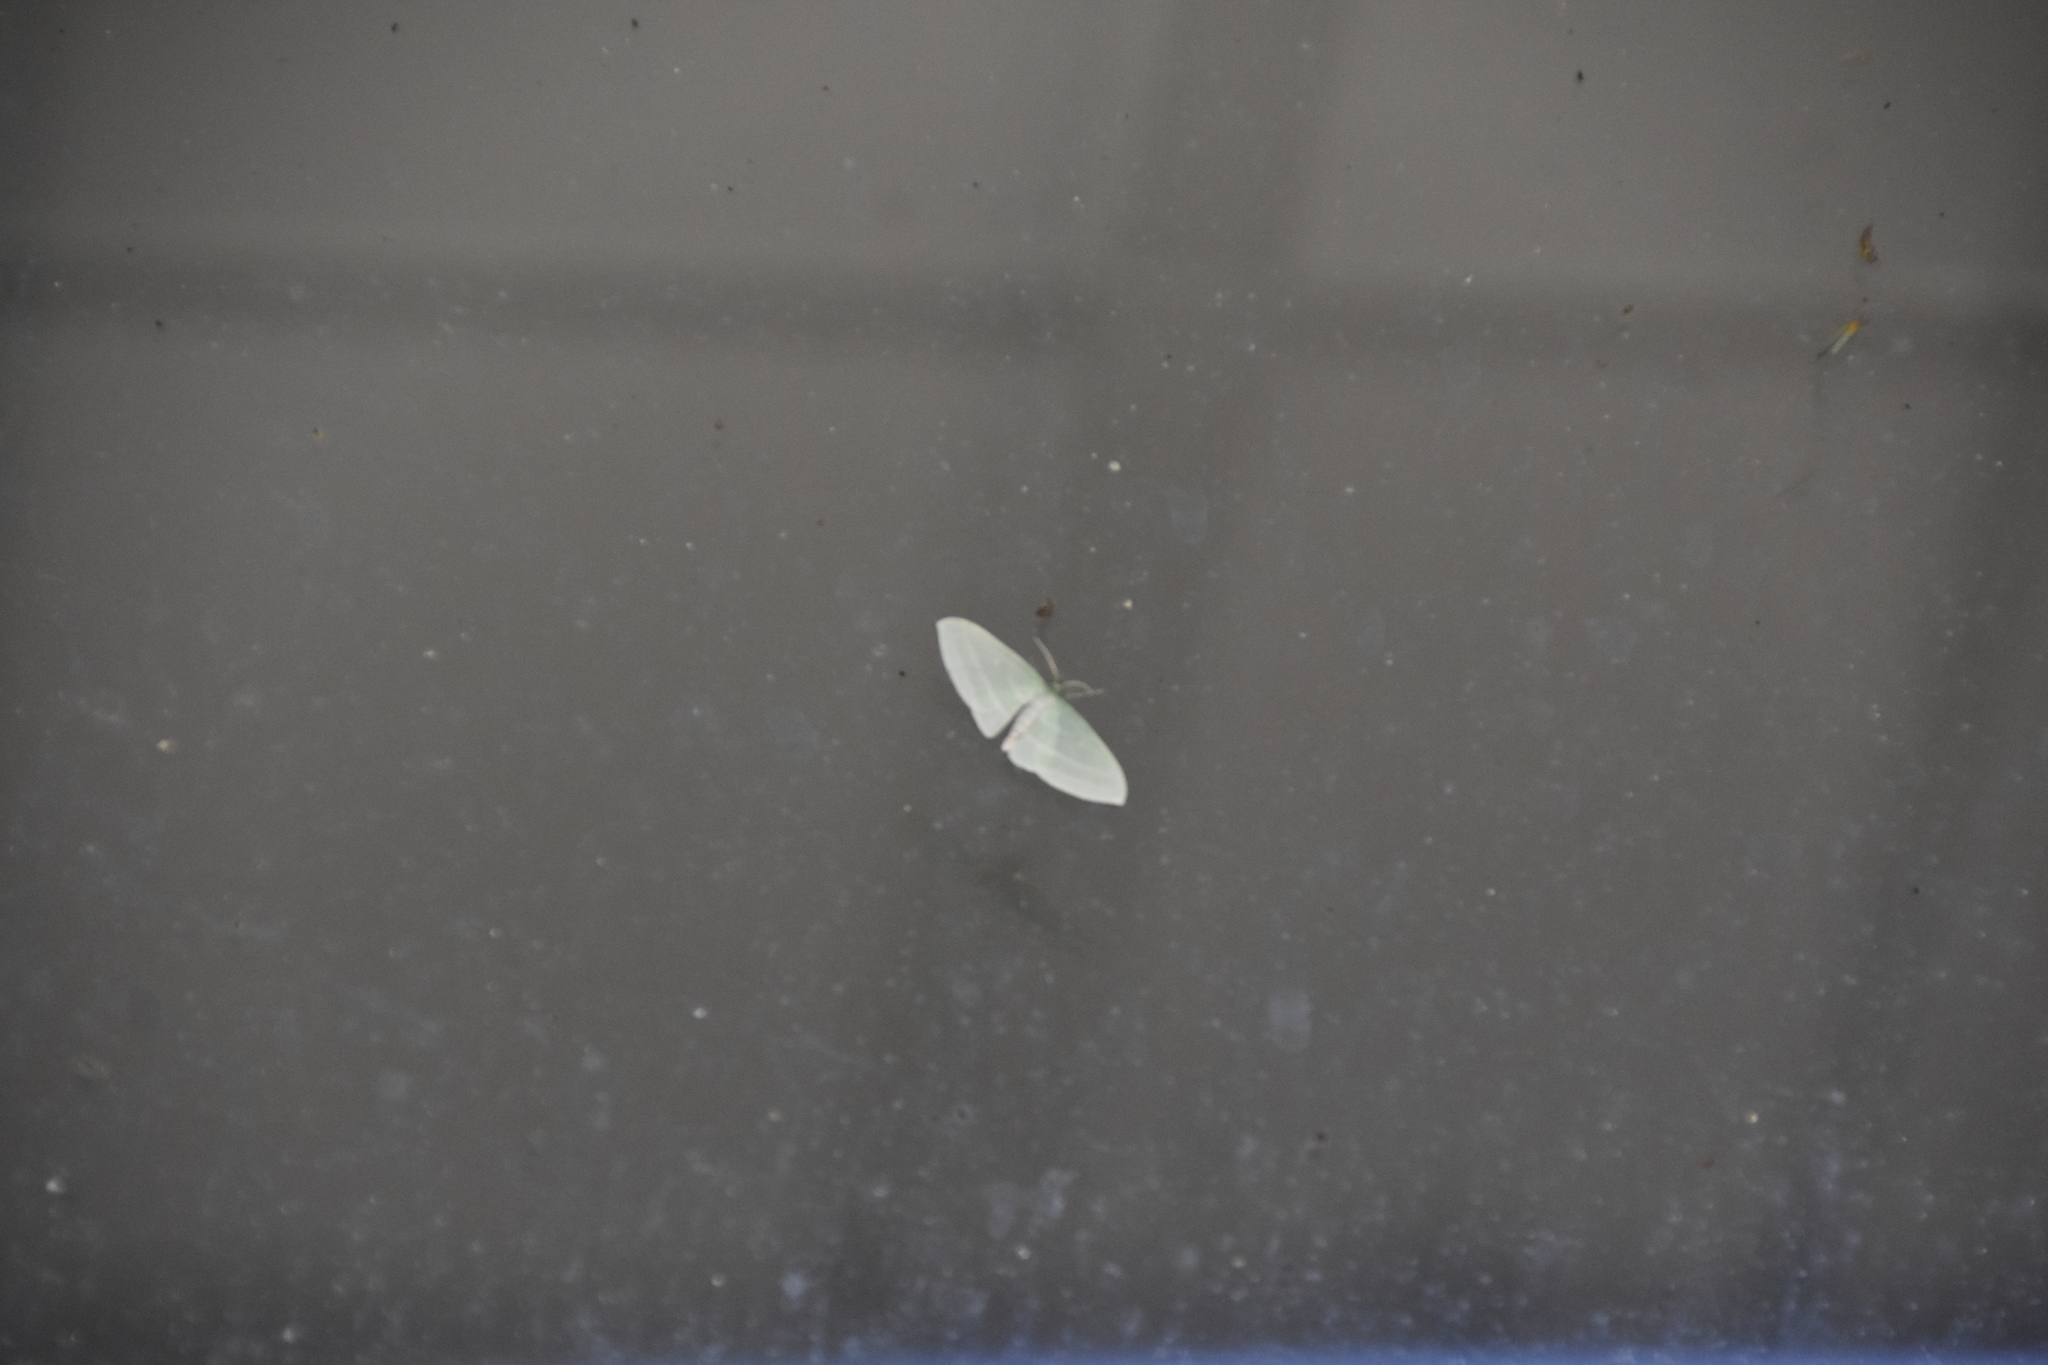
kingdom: Animalia
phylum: Arthropoda
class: Insecta
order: Lepidoptera
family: Geometridae
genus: Dyspteris
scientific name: Dyspteris abortivaria
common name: Bad-wing
